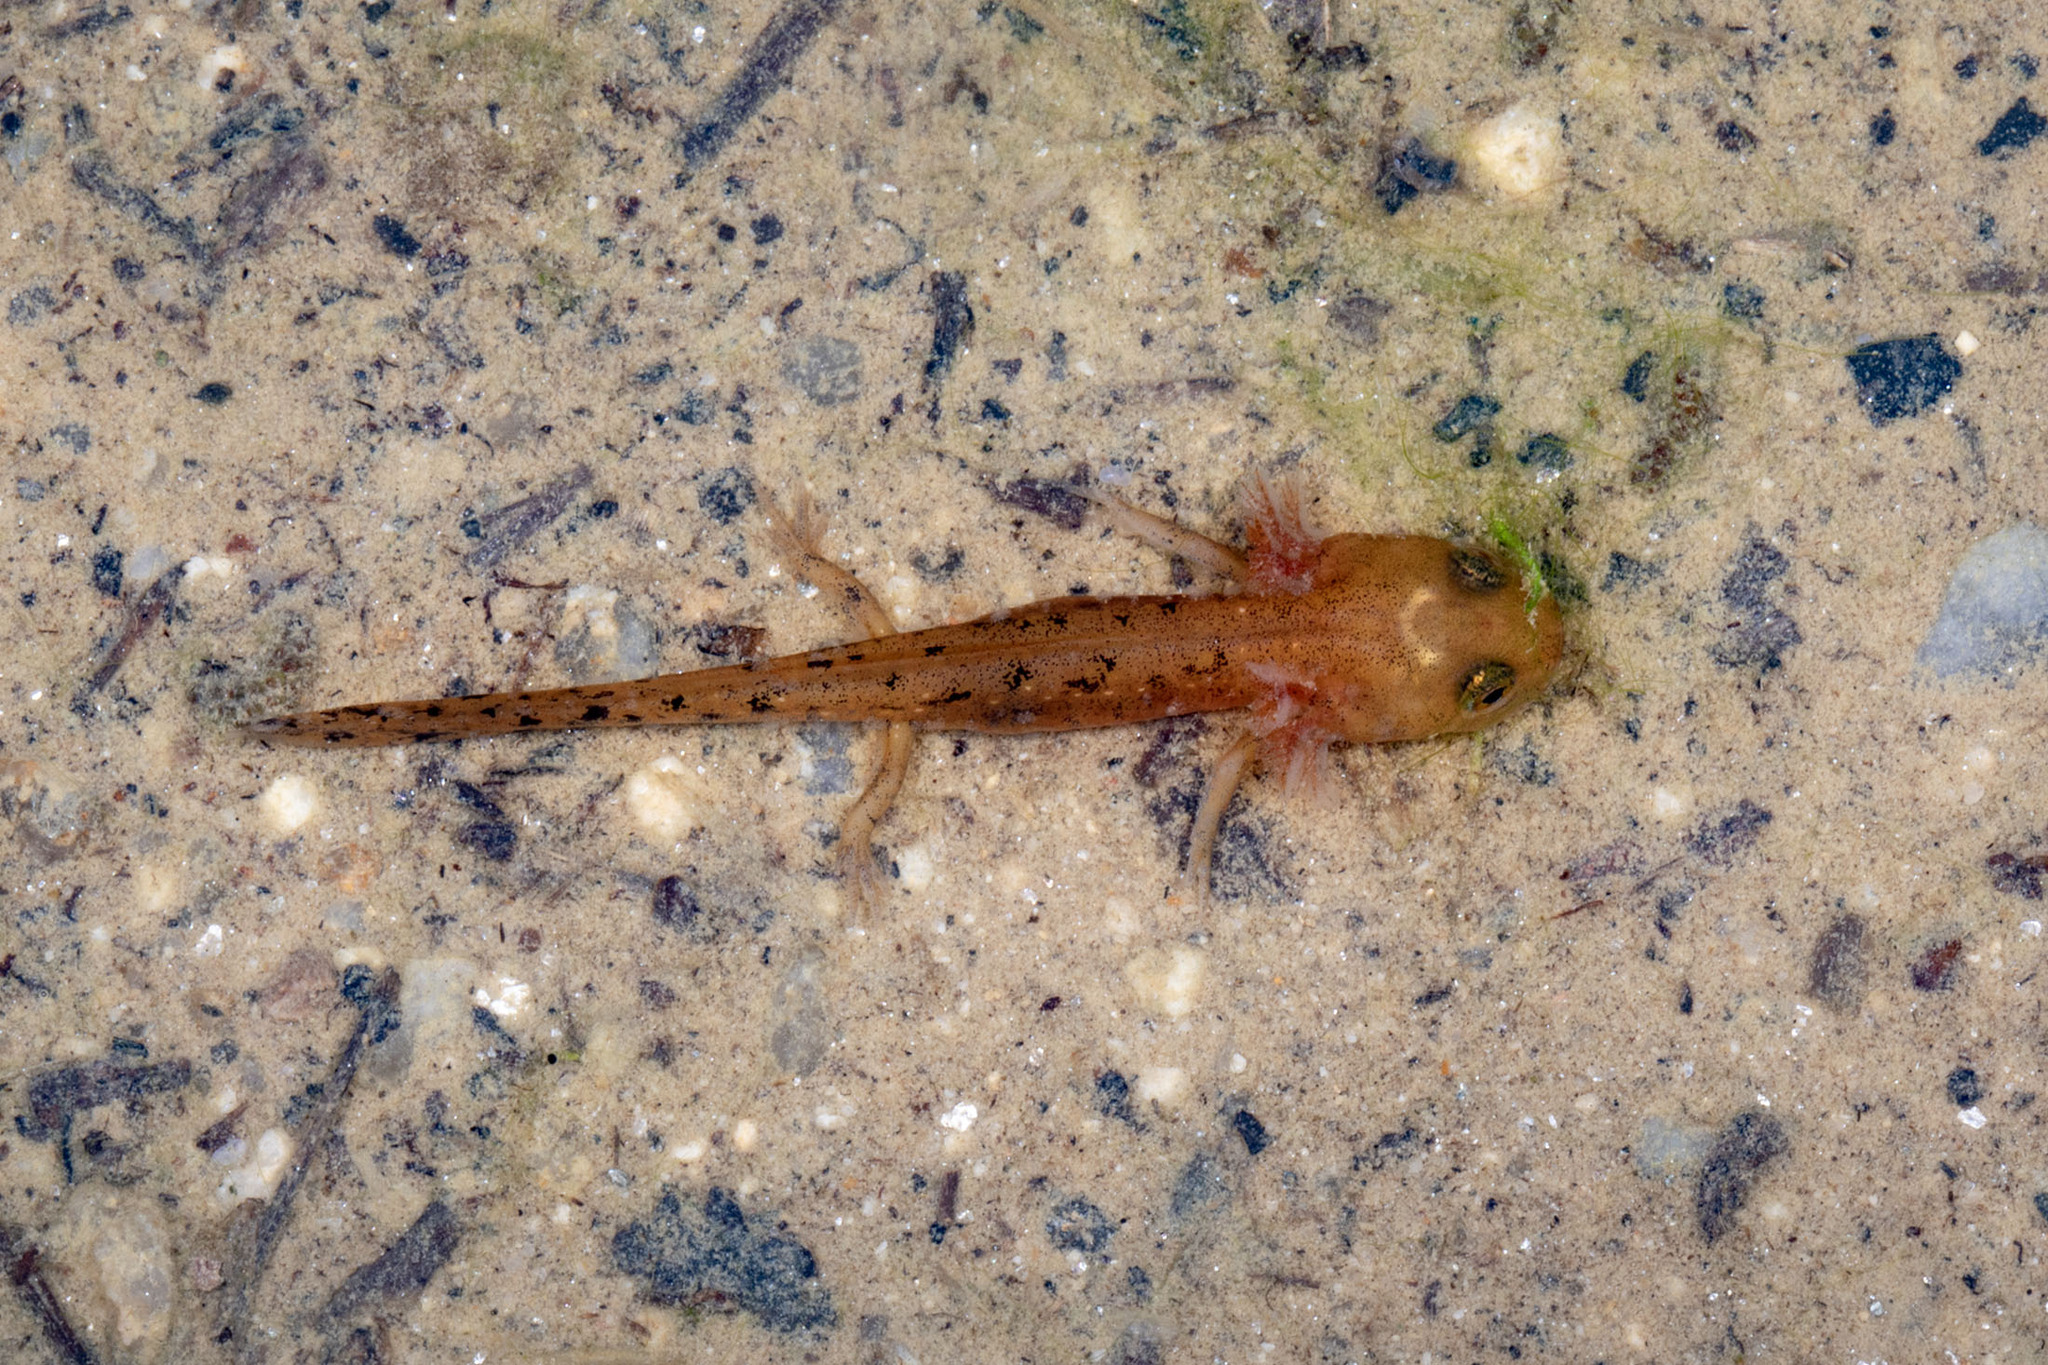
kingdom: Animalia
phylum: Chordata
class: Amphibia
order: Caudata
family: Salamandridae
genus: Salamandra
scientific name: Salamandra salamandra
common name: Fire salamander
